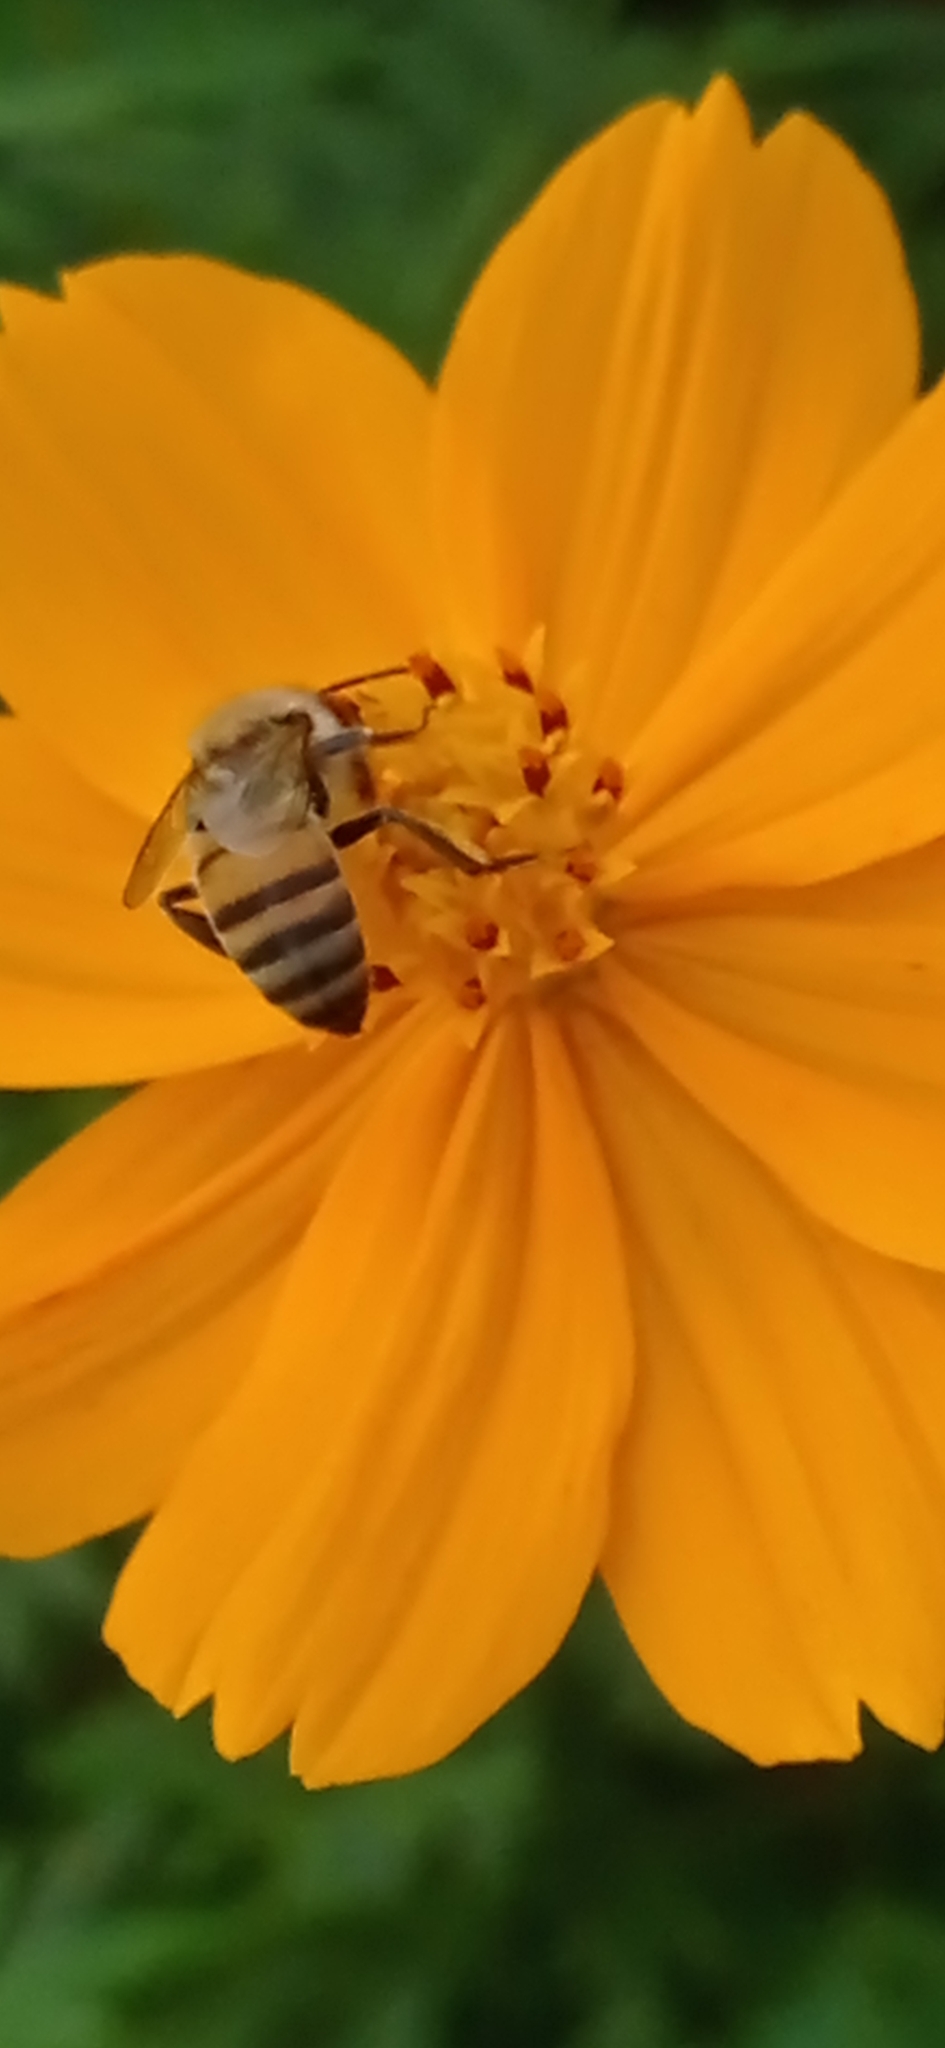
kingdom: Animalia
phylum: Arthropoda
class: Insecta
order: Hymenoptera
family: Apidae
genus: Apis
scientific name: Apis mellifera
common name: Honey bee
